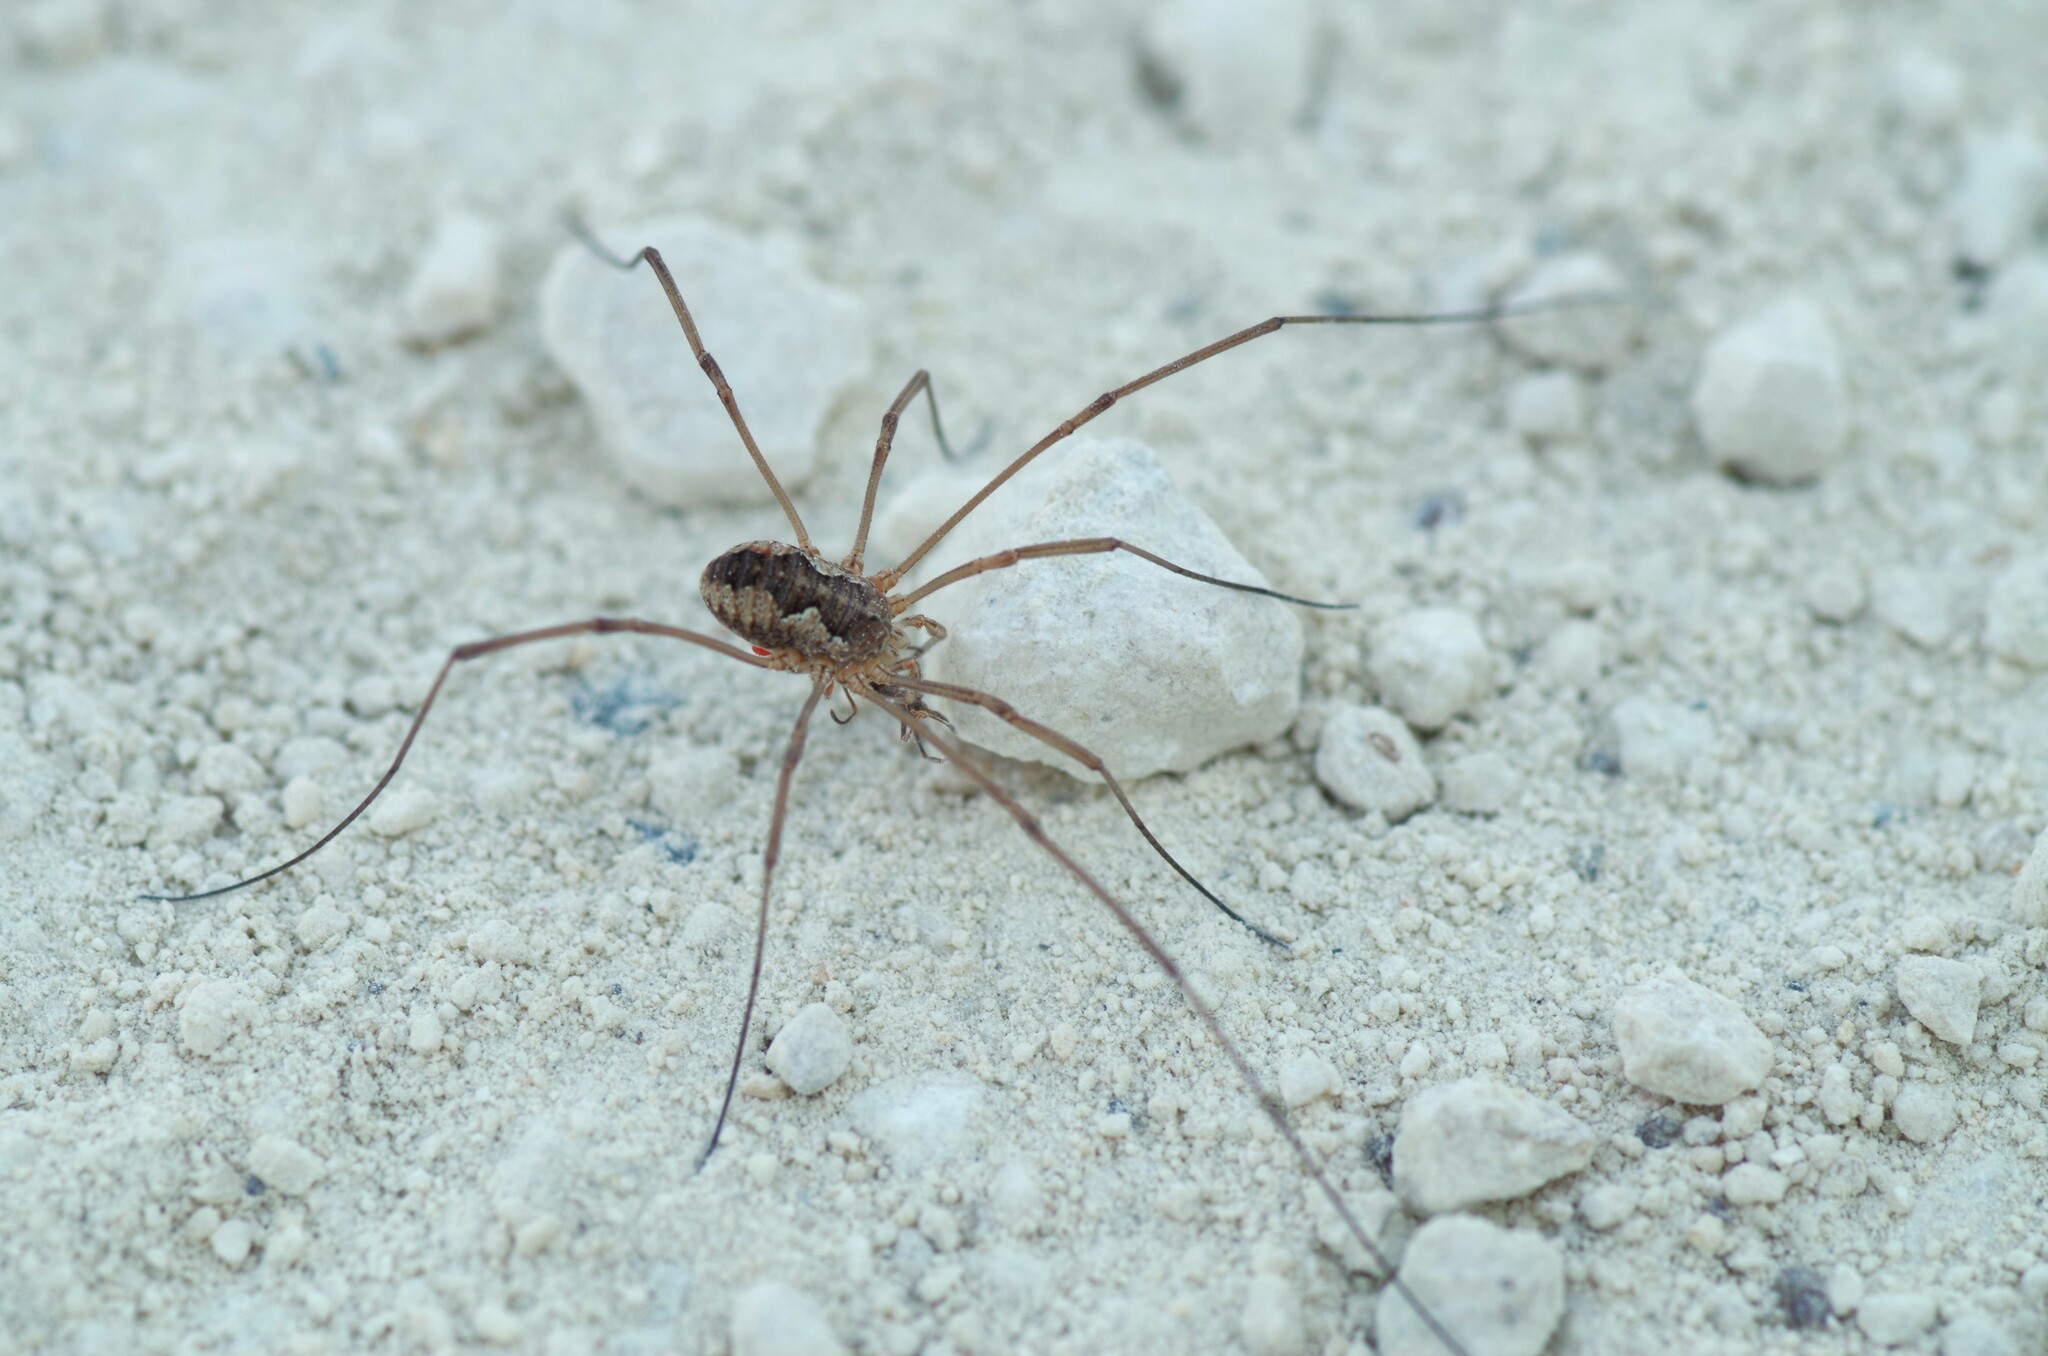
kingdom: Animalia
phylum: Arthropoda
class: Arachnida
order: Opiliones
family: Phalangiidae
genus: Phalangium
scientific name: Phalangium opilio
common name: Daddy longleg
